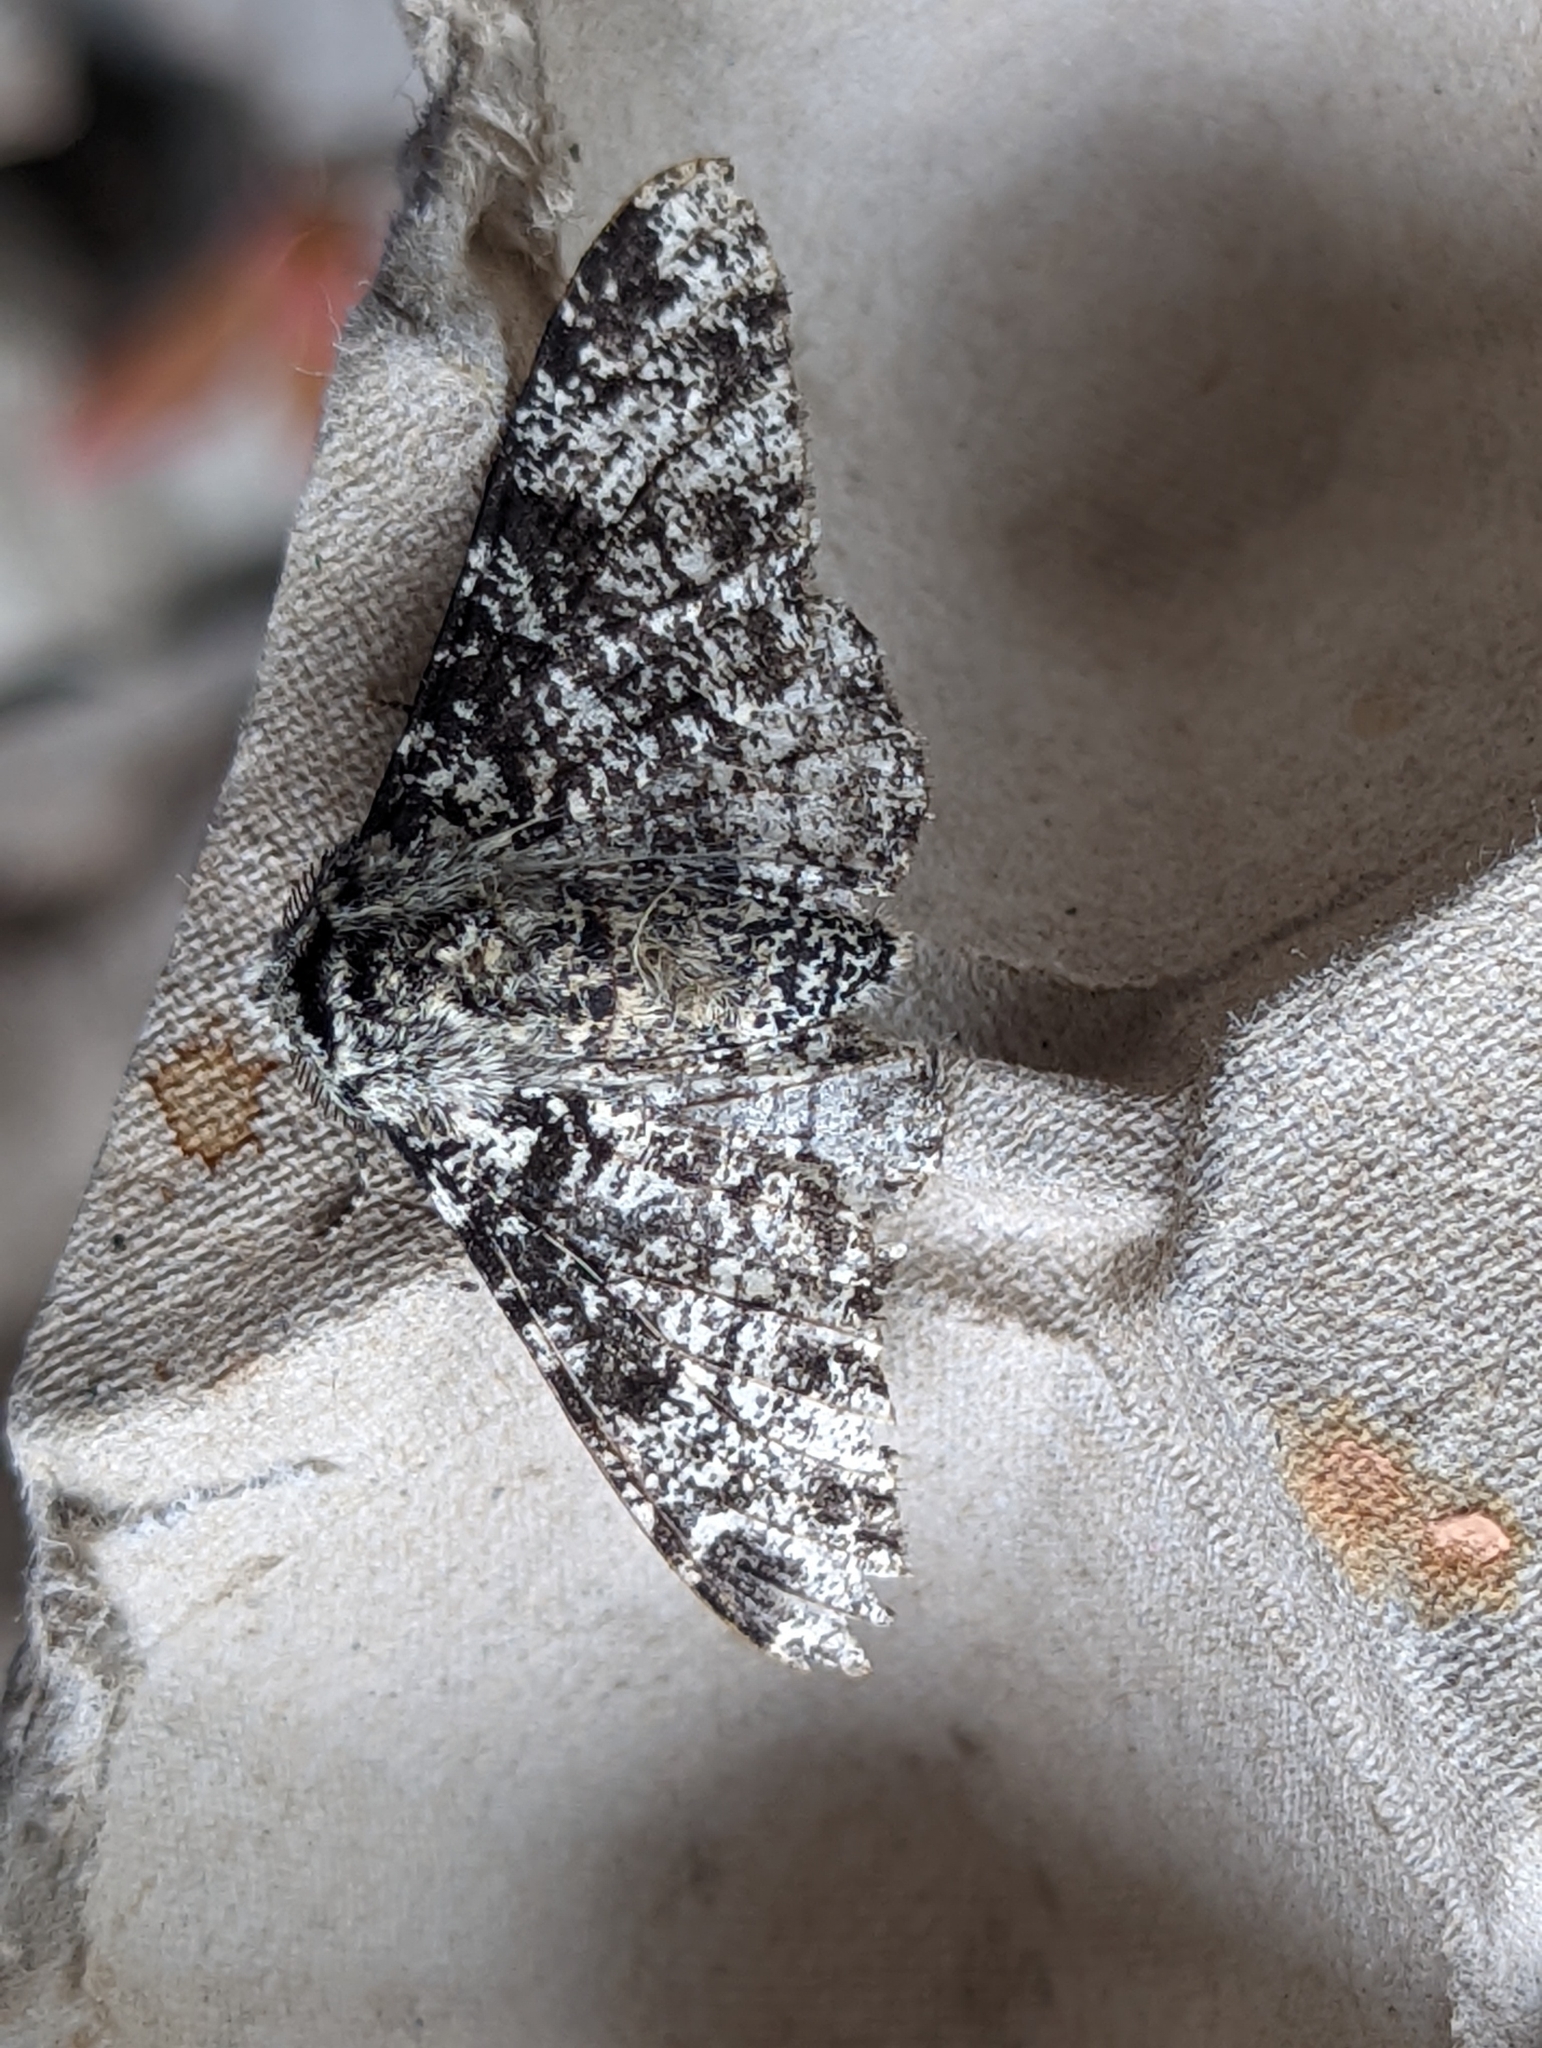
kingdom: Animalia
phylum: Arthropoda
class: Insecta
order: Lepidoptera
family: Geometridae
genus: Biston
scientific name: Biston betularia
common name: Peppered moth
